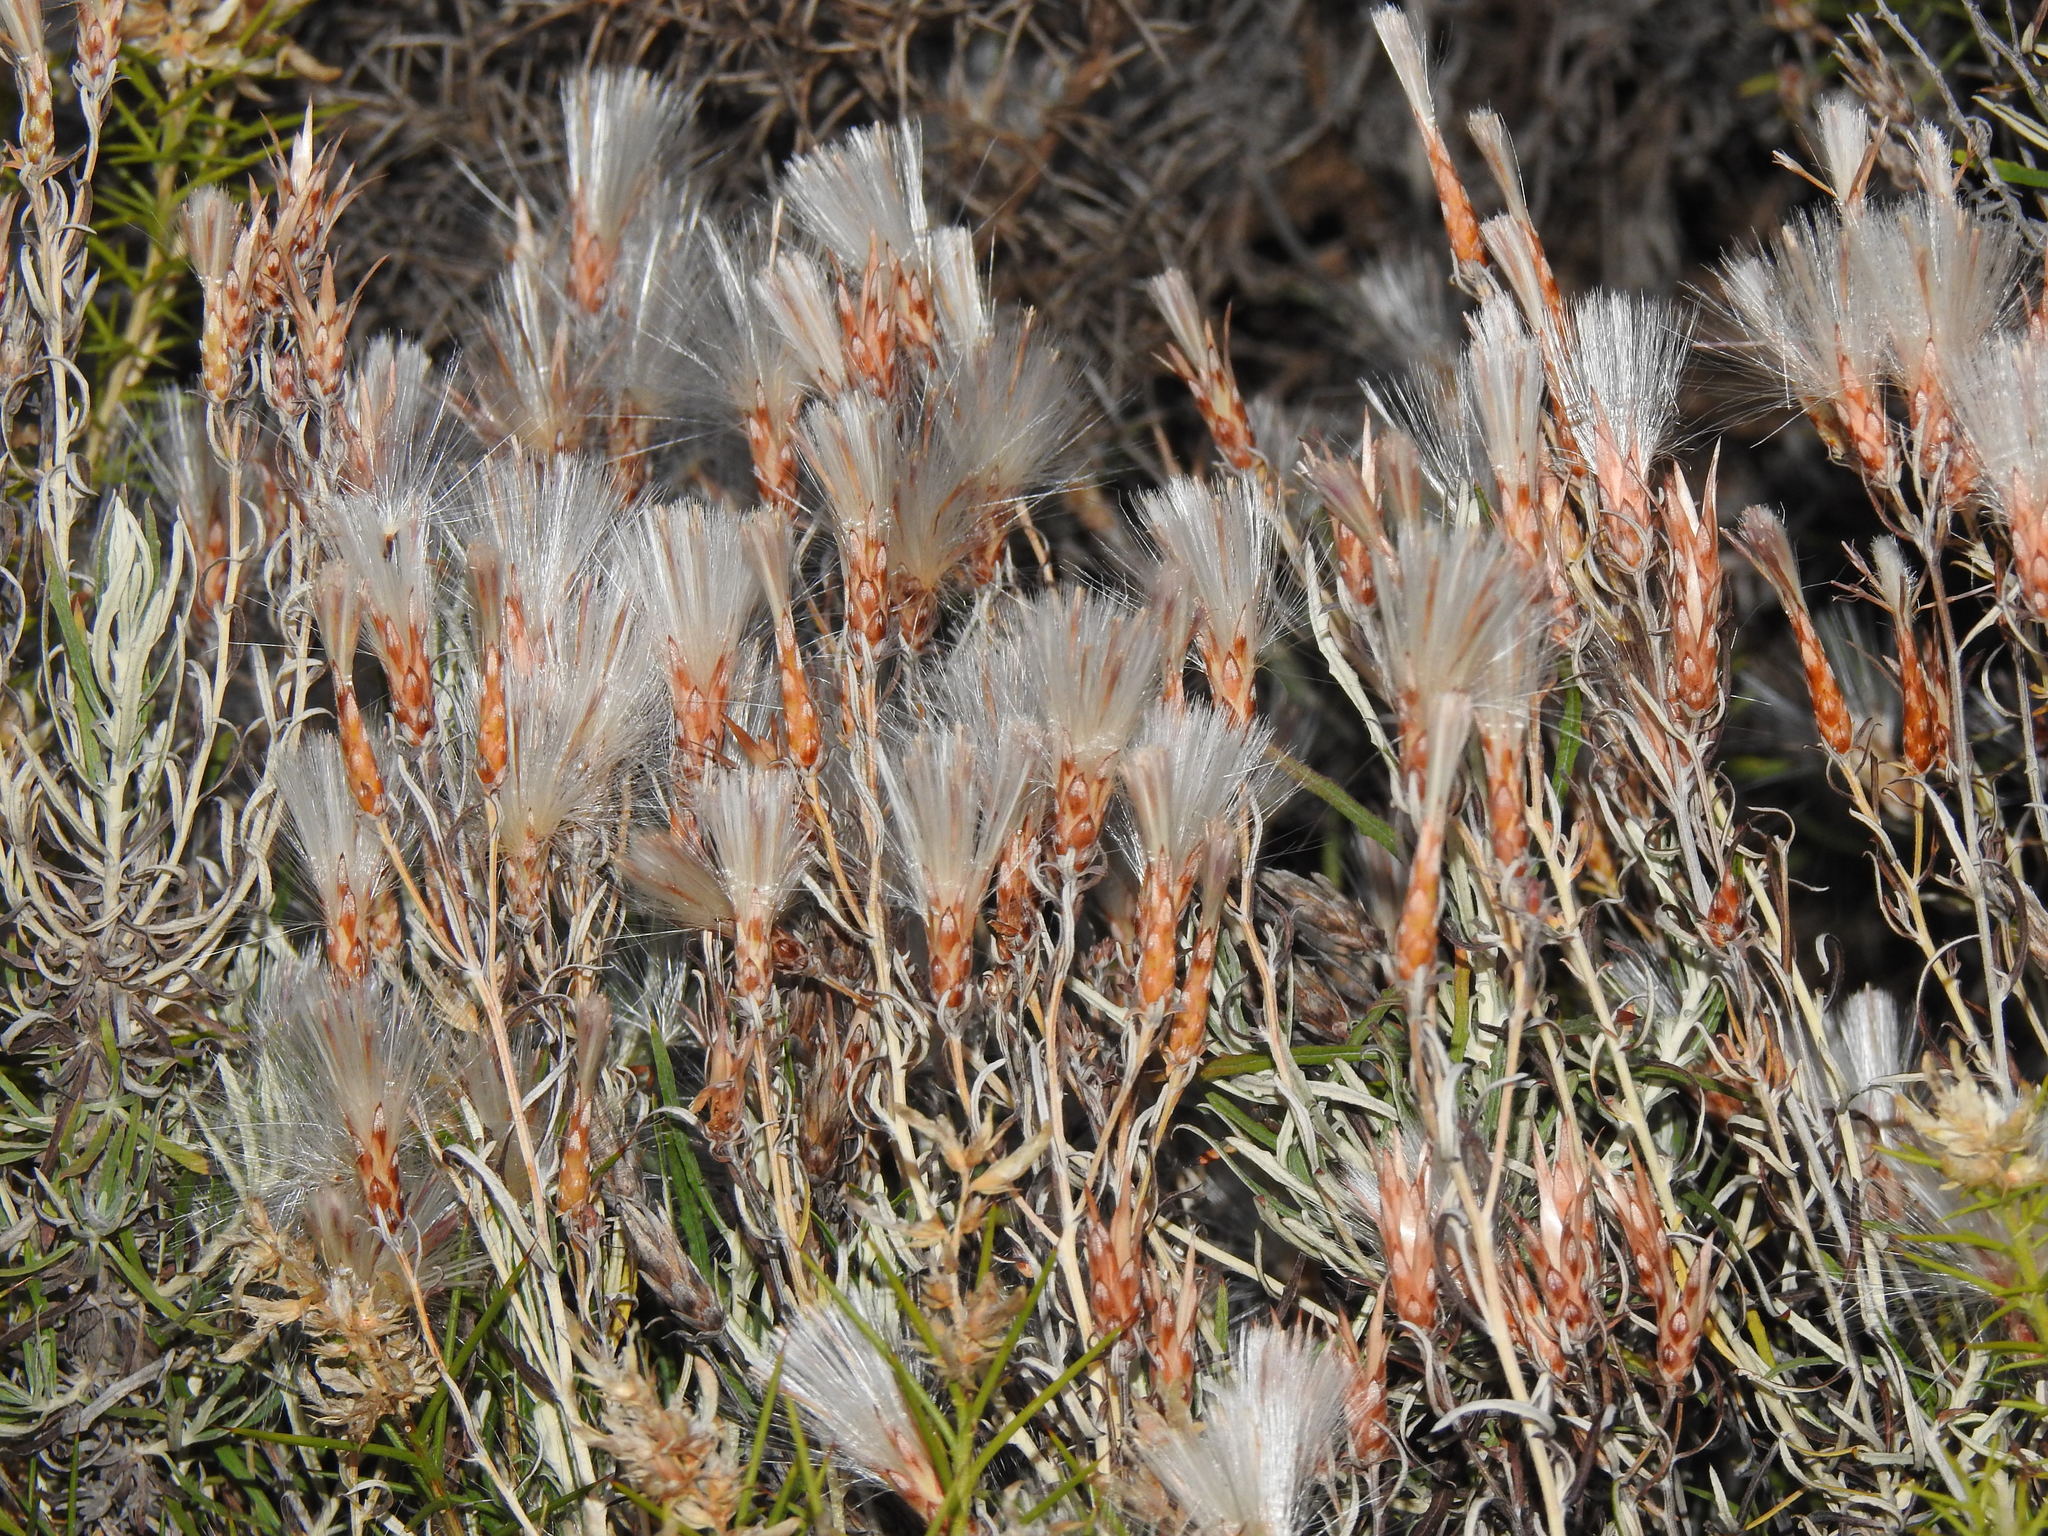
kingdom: Plantae
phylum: Tracheophyta
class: Magnoliopsida
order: Asterales
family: Asteraceae
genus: Staehelina
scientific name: Staehelina dubia
